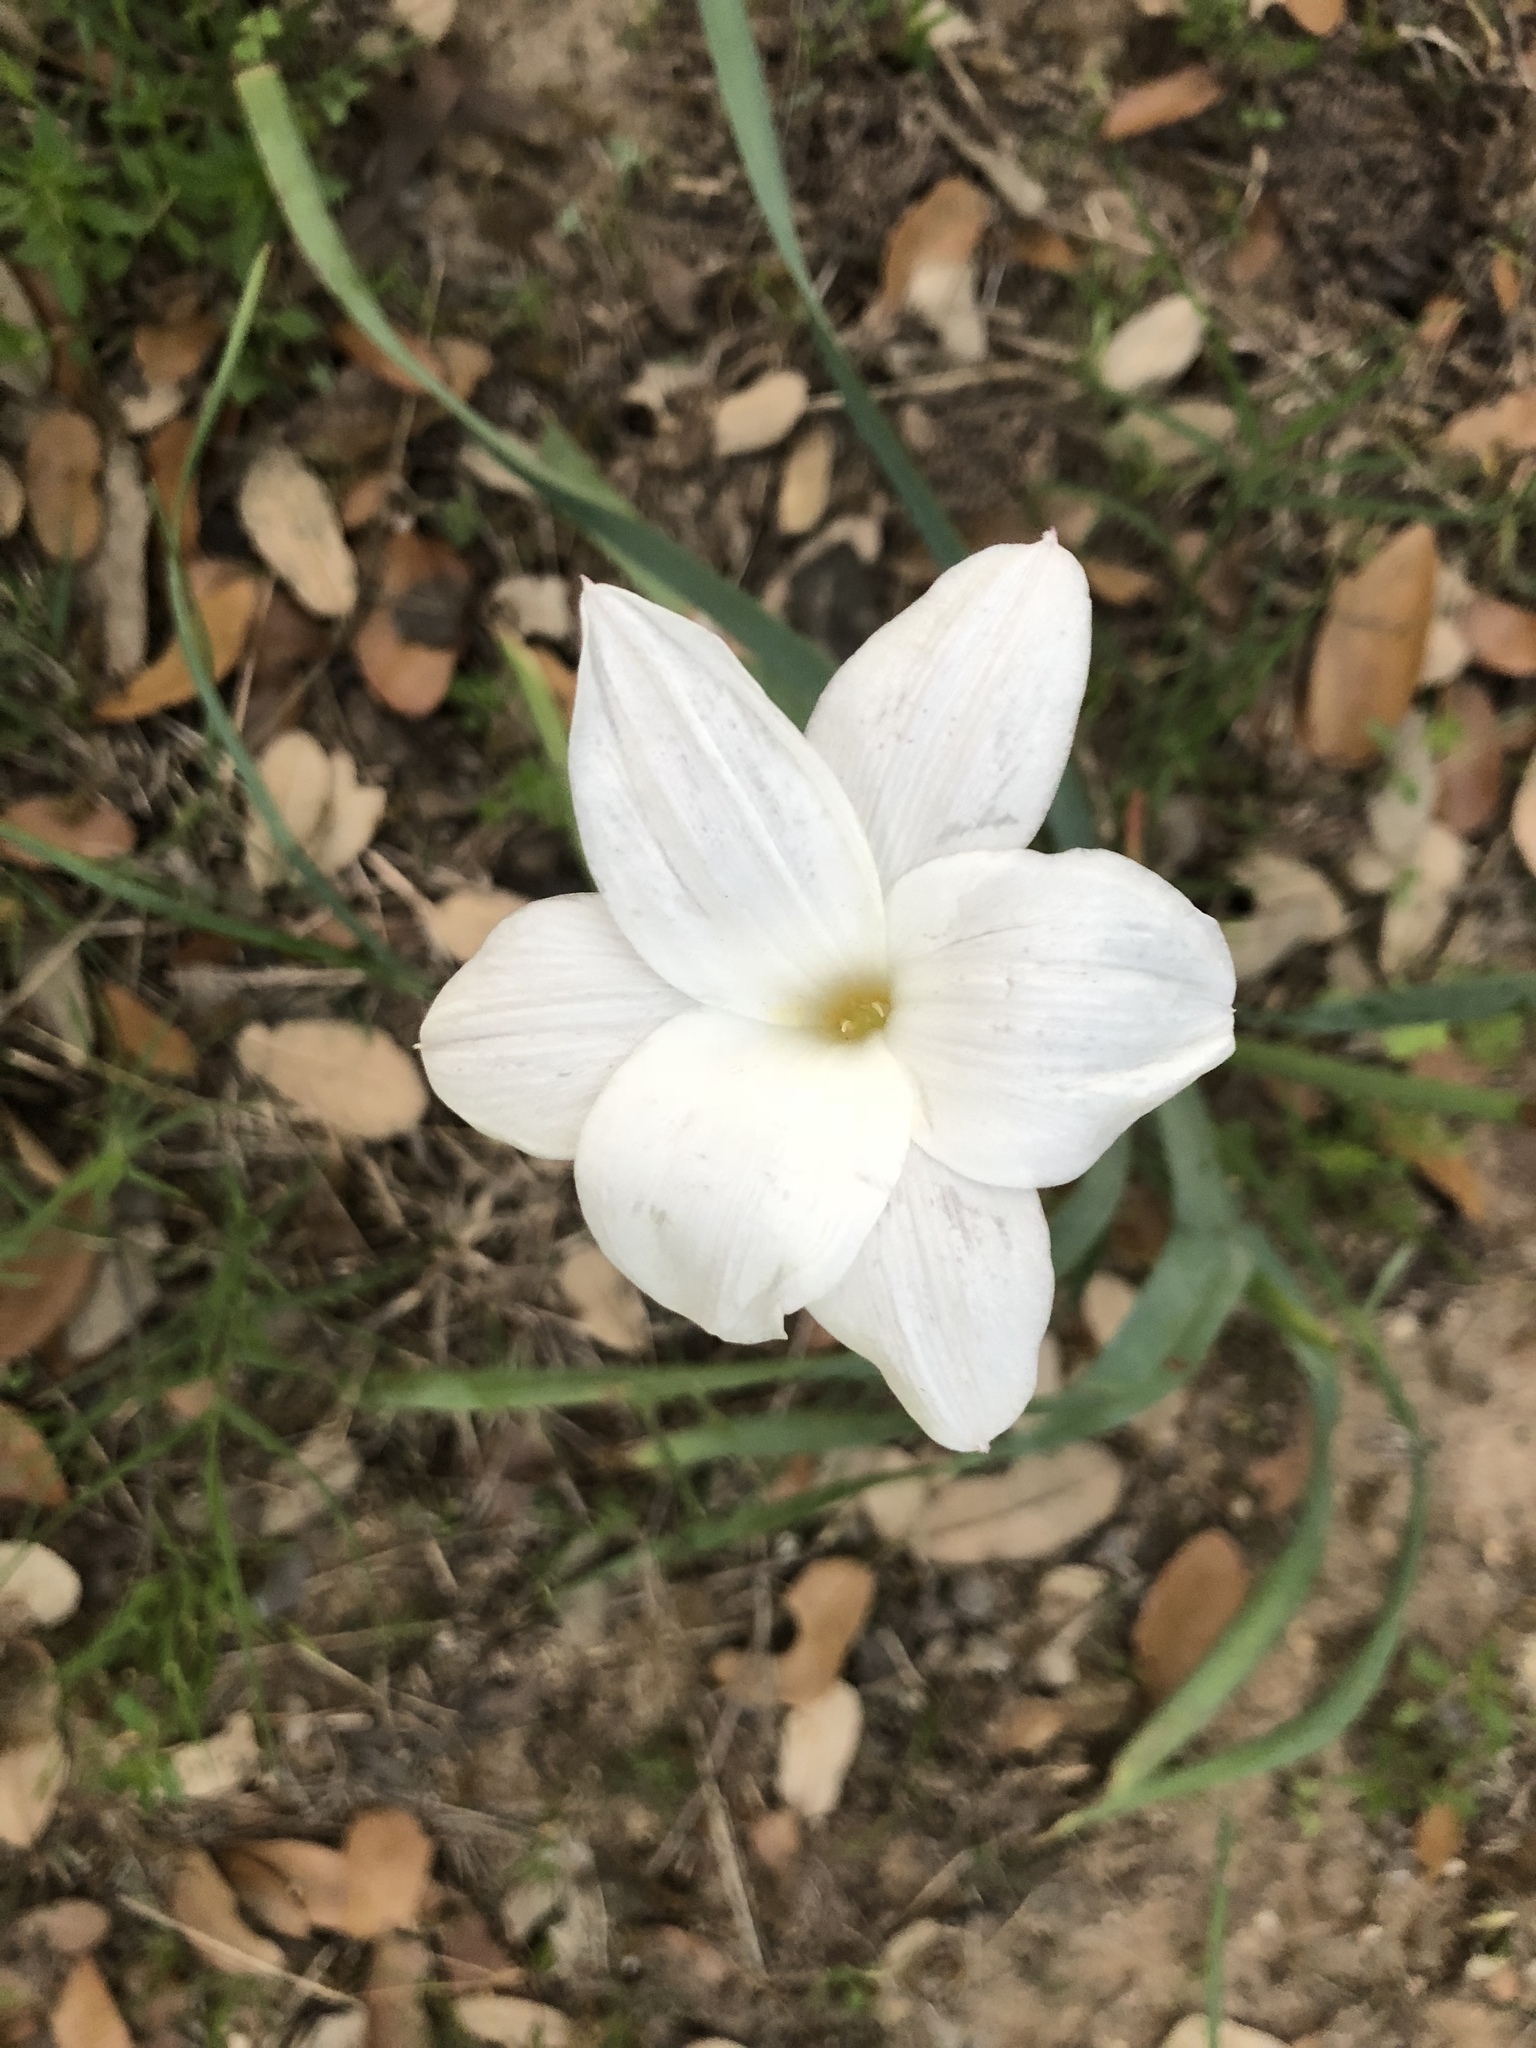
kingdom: Plantae
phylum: Tracheophyta
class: Liliopsida
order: Asparagales
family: Amaryllidaceae
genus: Zephyranthes
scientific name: Zephyranthes drummondii
